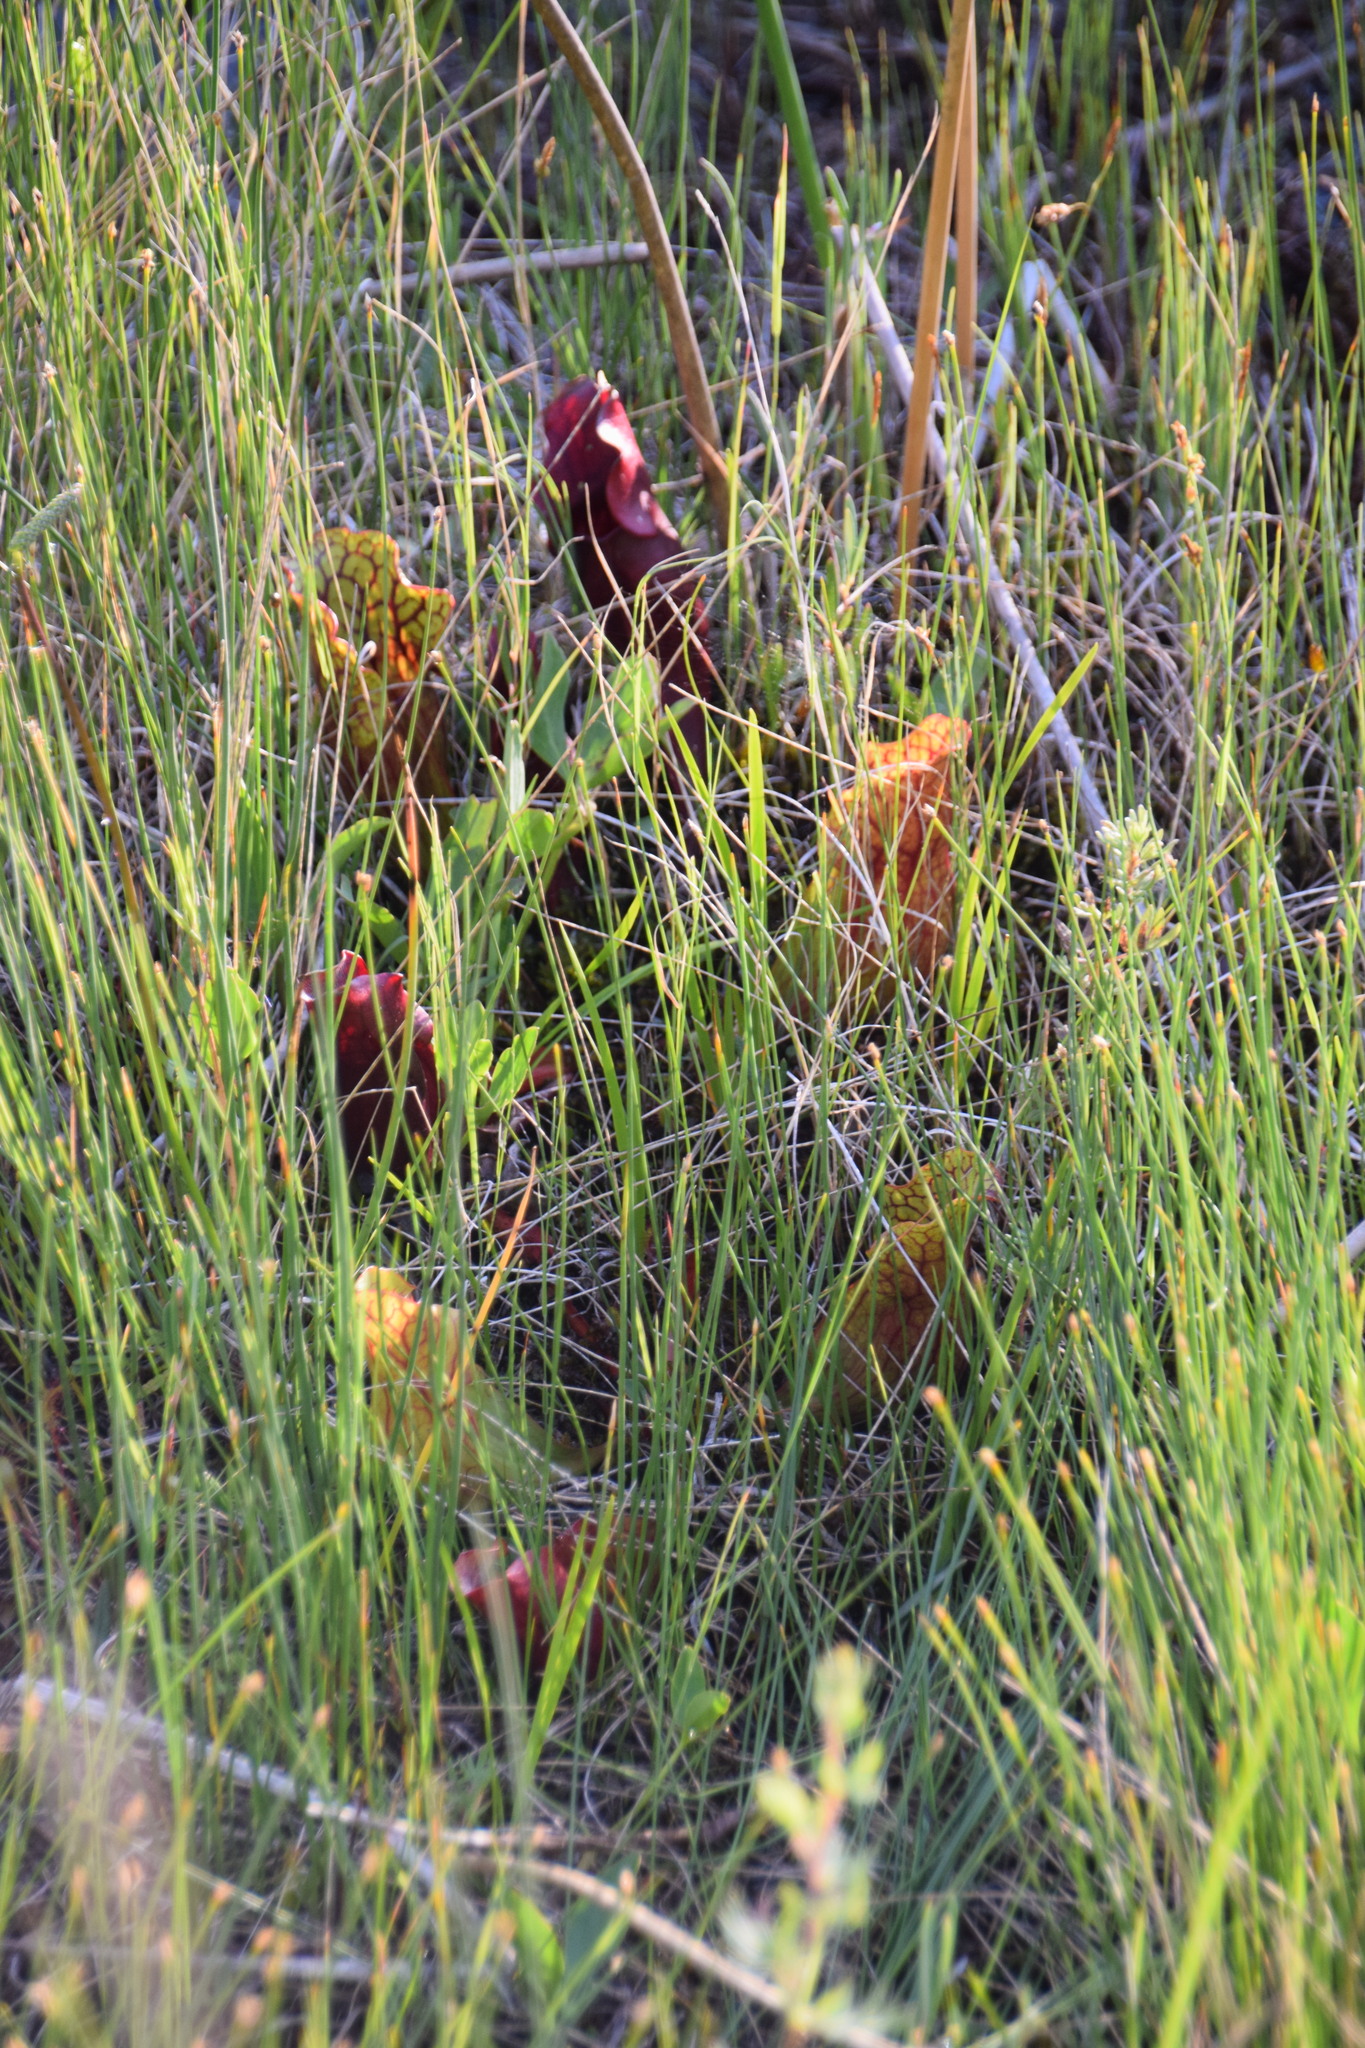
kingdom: Plantae
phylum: Tracheophyta
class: Magnoliopsida
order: Ericales
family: Sarraceniaceae
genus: Sarracenia
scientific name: Sarracenia purpurea
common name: Pitcherplant
